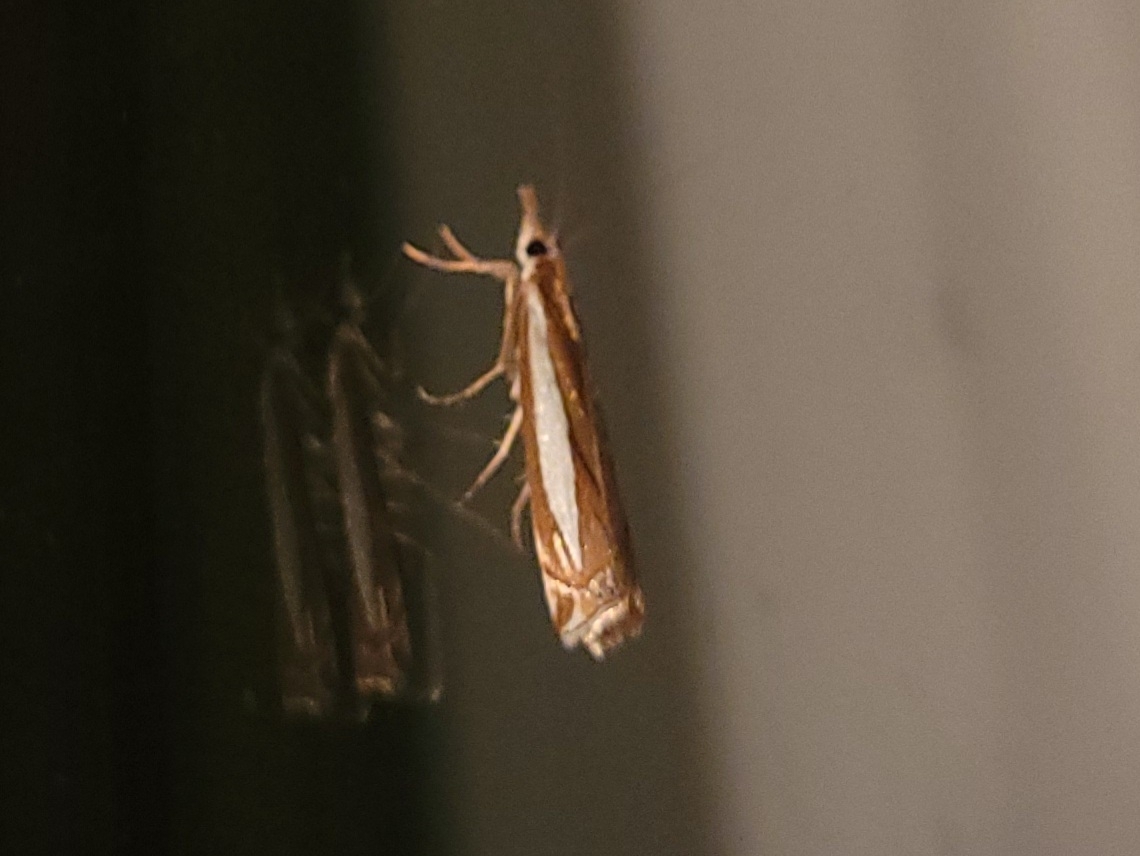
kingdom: Animalia
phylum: Arthropoda
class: Insecta
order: Lepidoptera
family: Crambidae
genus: Crambus
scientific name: Crambus praefectellus
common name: Common grass-veneer
